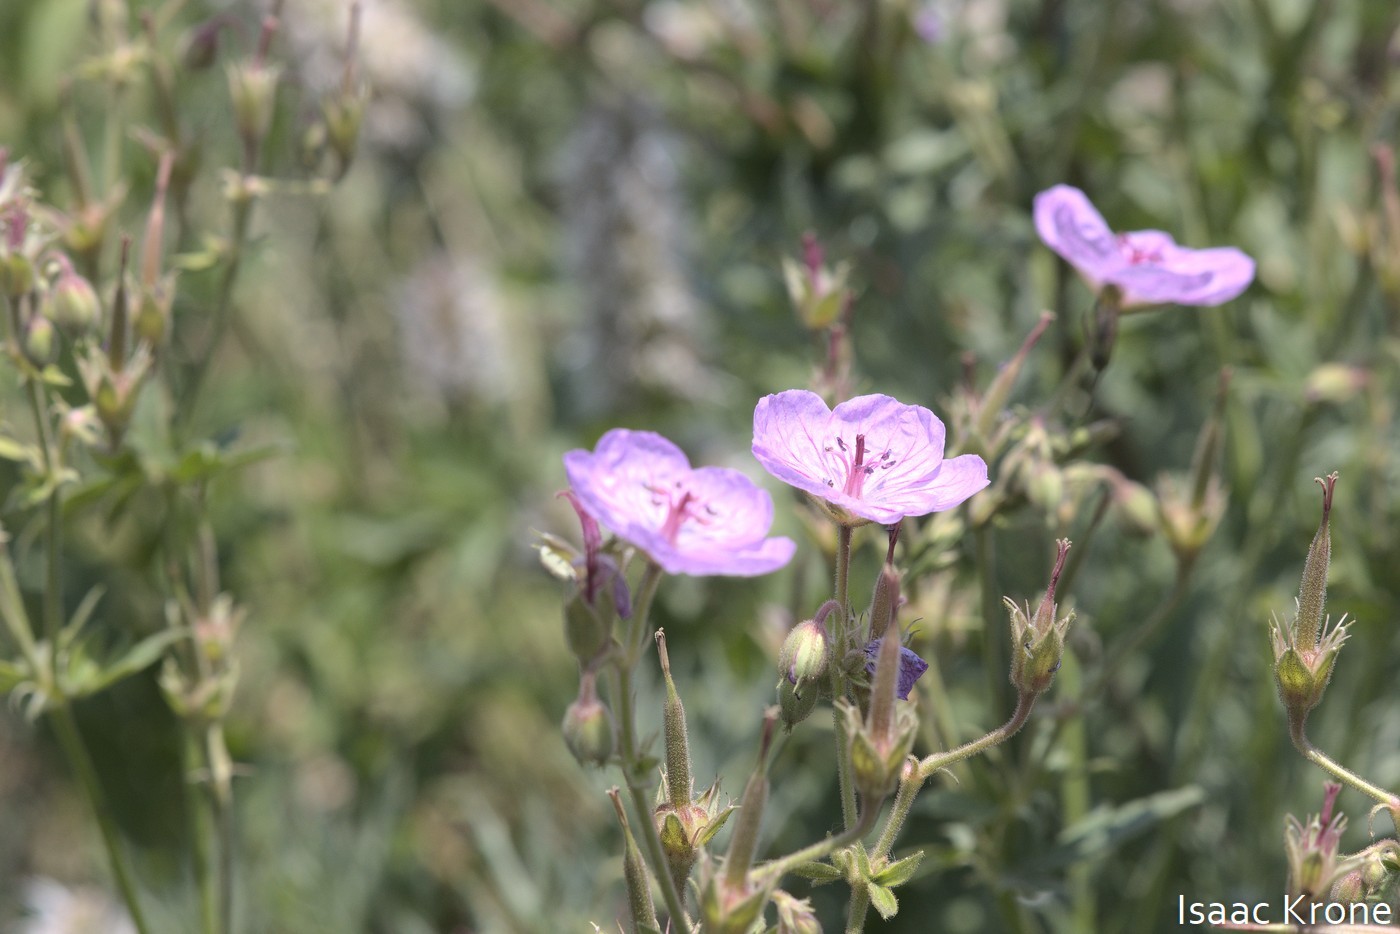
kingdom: Plantae
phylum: Tracheophyta
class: Magnoliopsida
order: Geraniales
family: Geraniaceae
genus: Geranium
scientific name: Geranium viscosissimum
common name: Purple geranium
